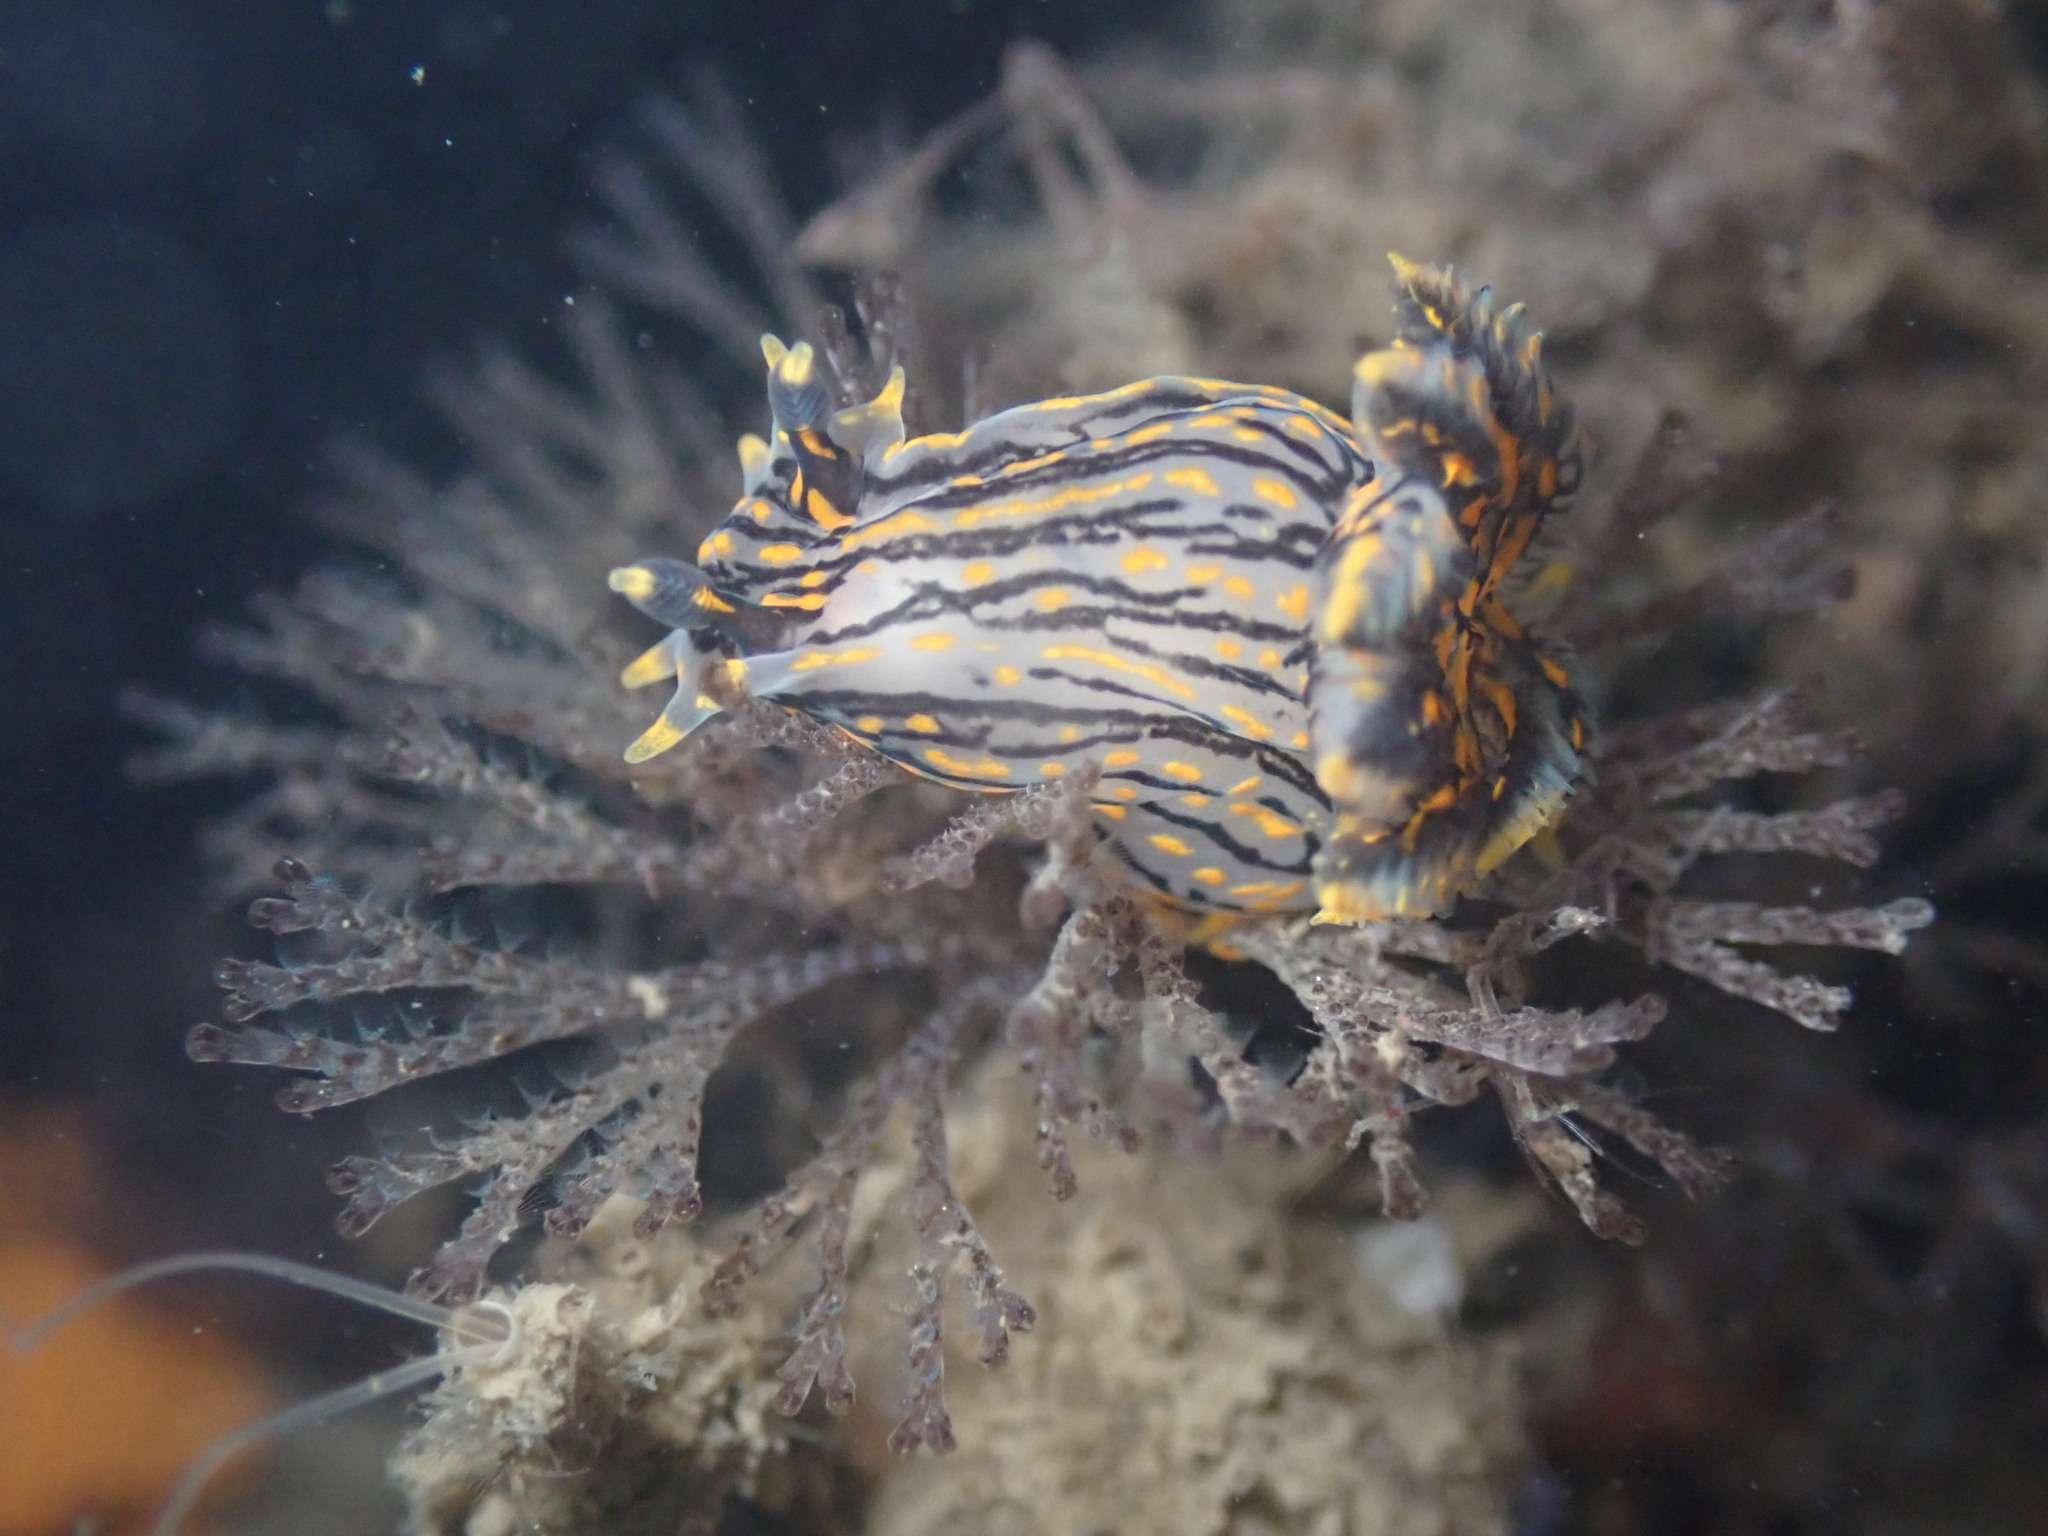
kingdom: Animalia
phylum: Mollusca
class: Gastropoda
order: Nudibranchia
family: Polyceridae
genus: Polycera
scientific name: Polycera atra
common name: Orange-spike polycera
